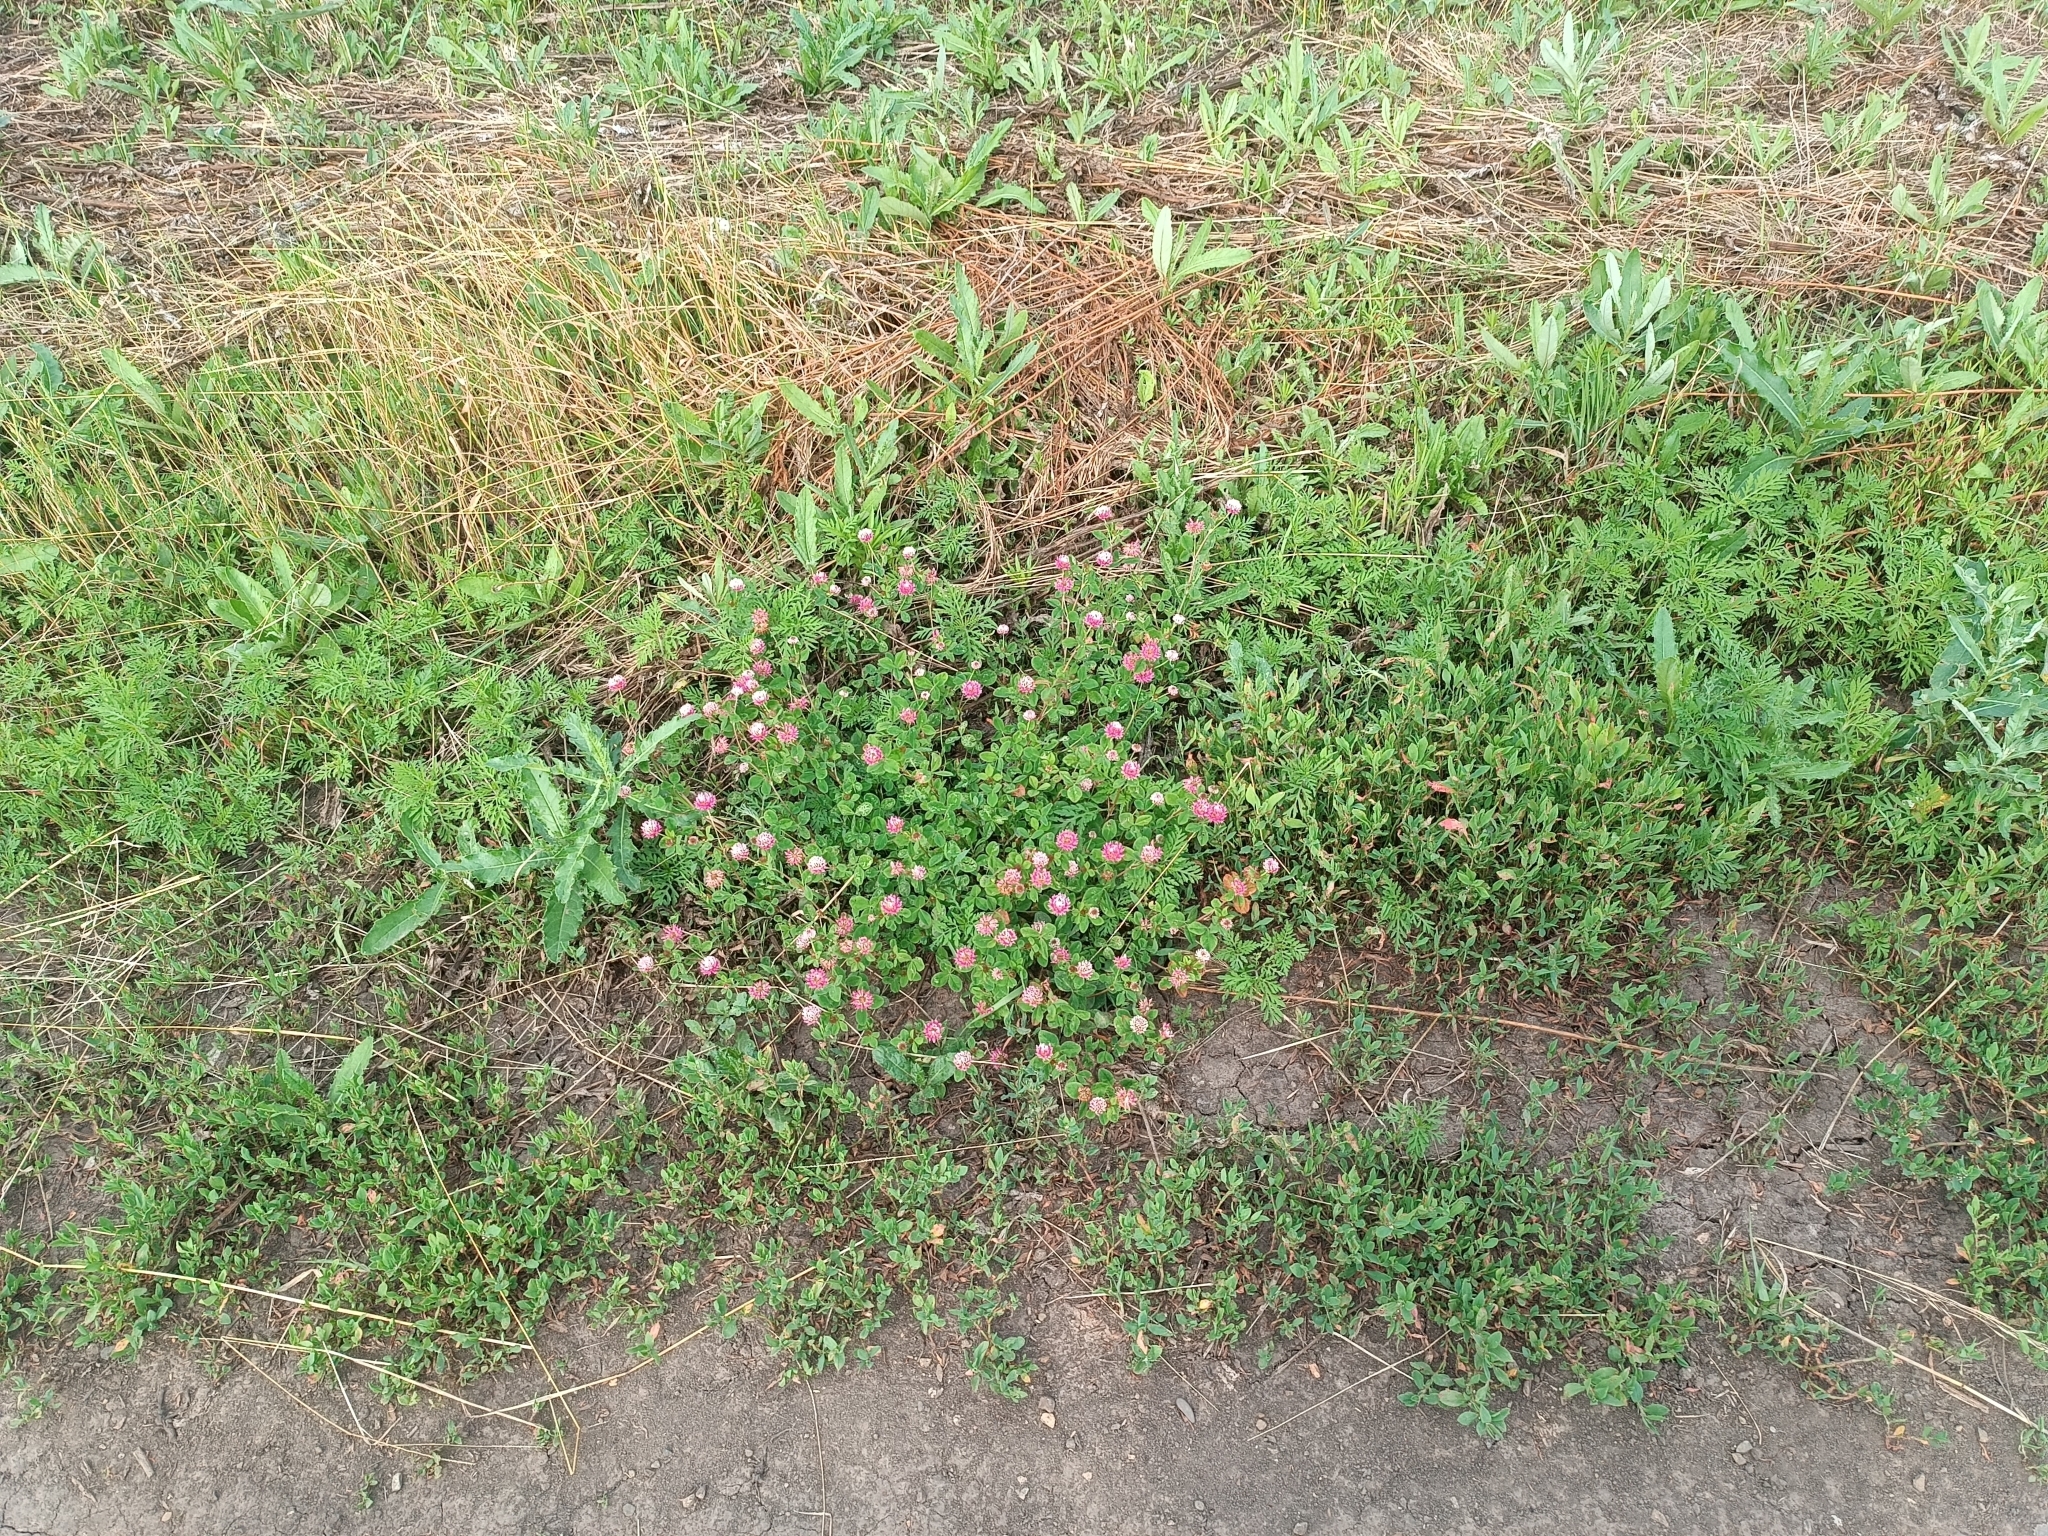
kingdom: Plantae
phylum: Tracheophyta
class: Magnoliopsida
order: Fabales
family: Fabaceae
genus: Trifolium
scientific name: Trifolium hybridum
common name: Alsike clover
